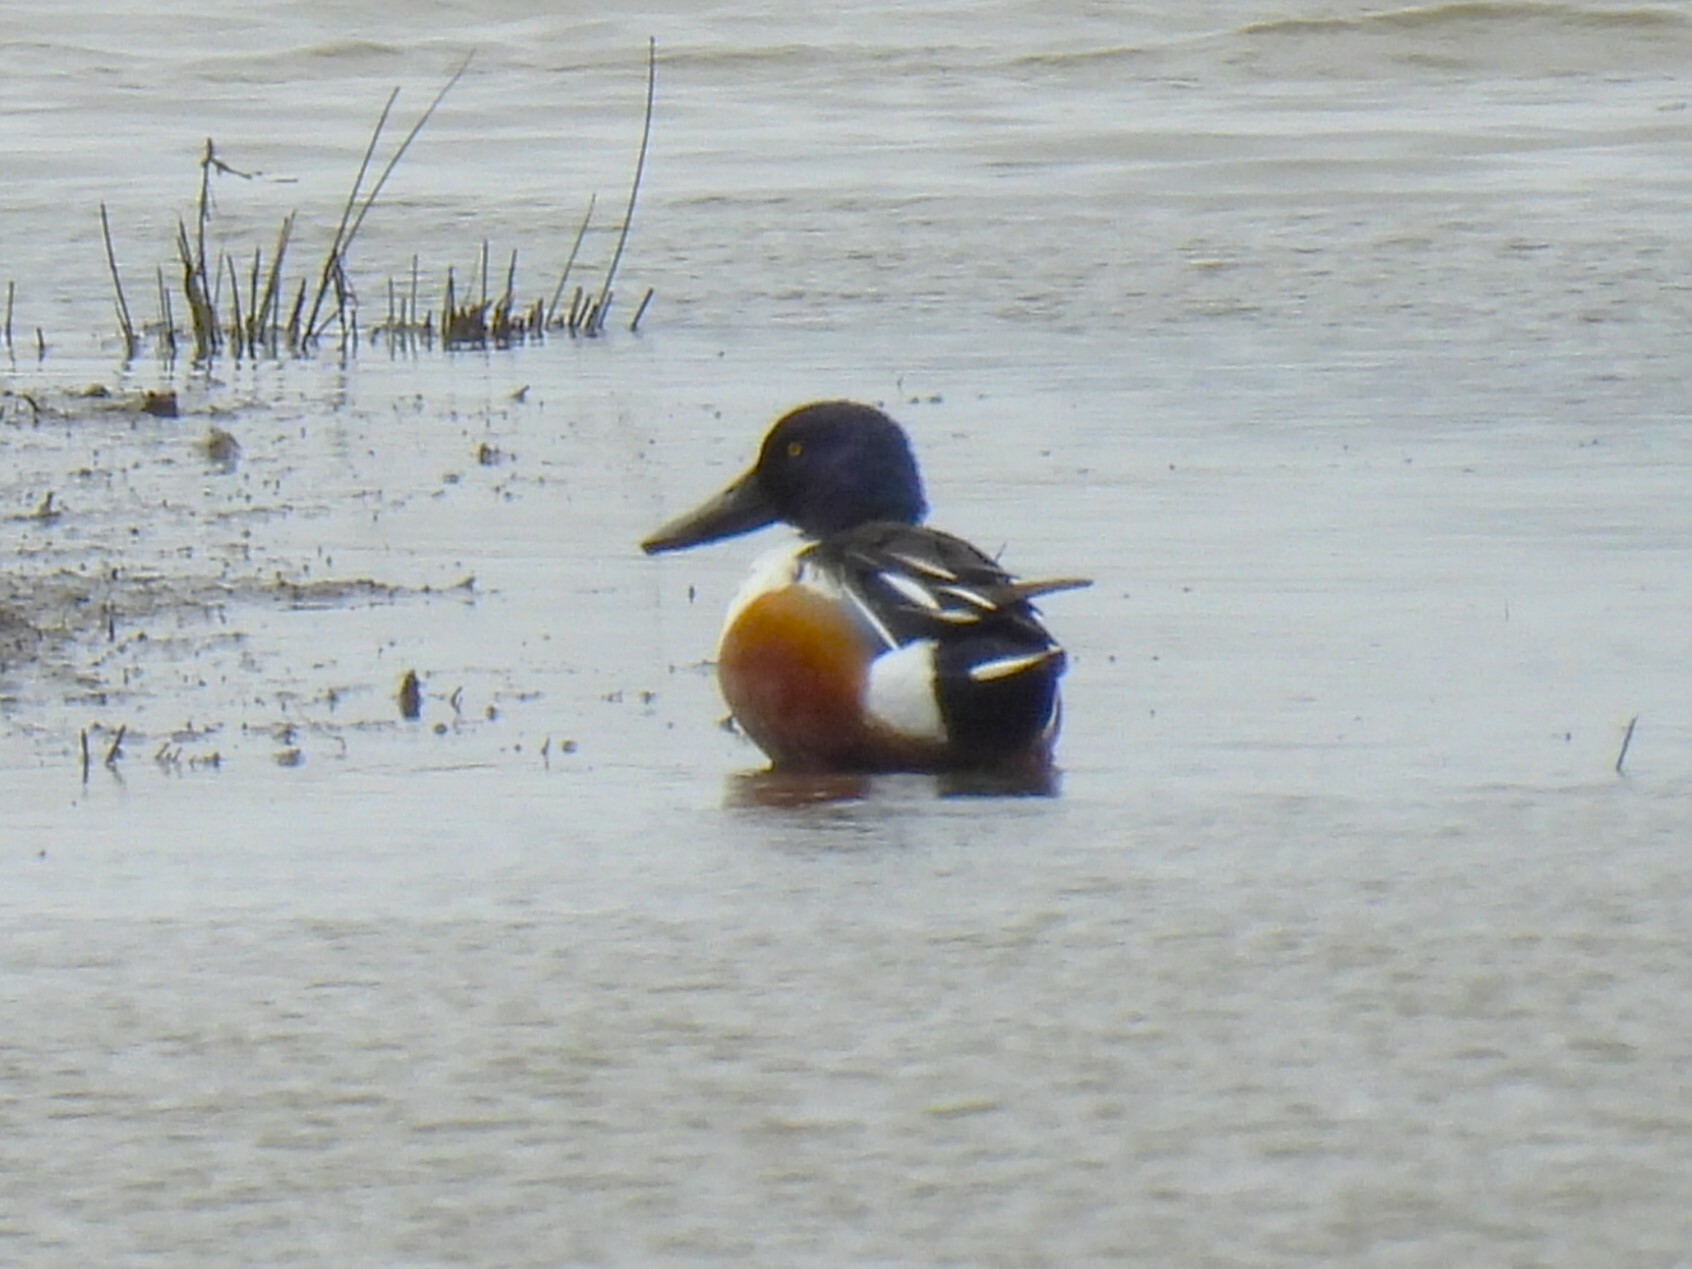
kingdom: Animalia
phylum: Chordata
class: Aves
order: Anseriformes
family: Anatidae
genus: Spatula
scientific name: Spatula clypeata
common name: Northern shoveler
